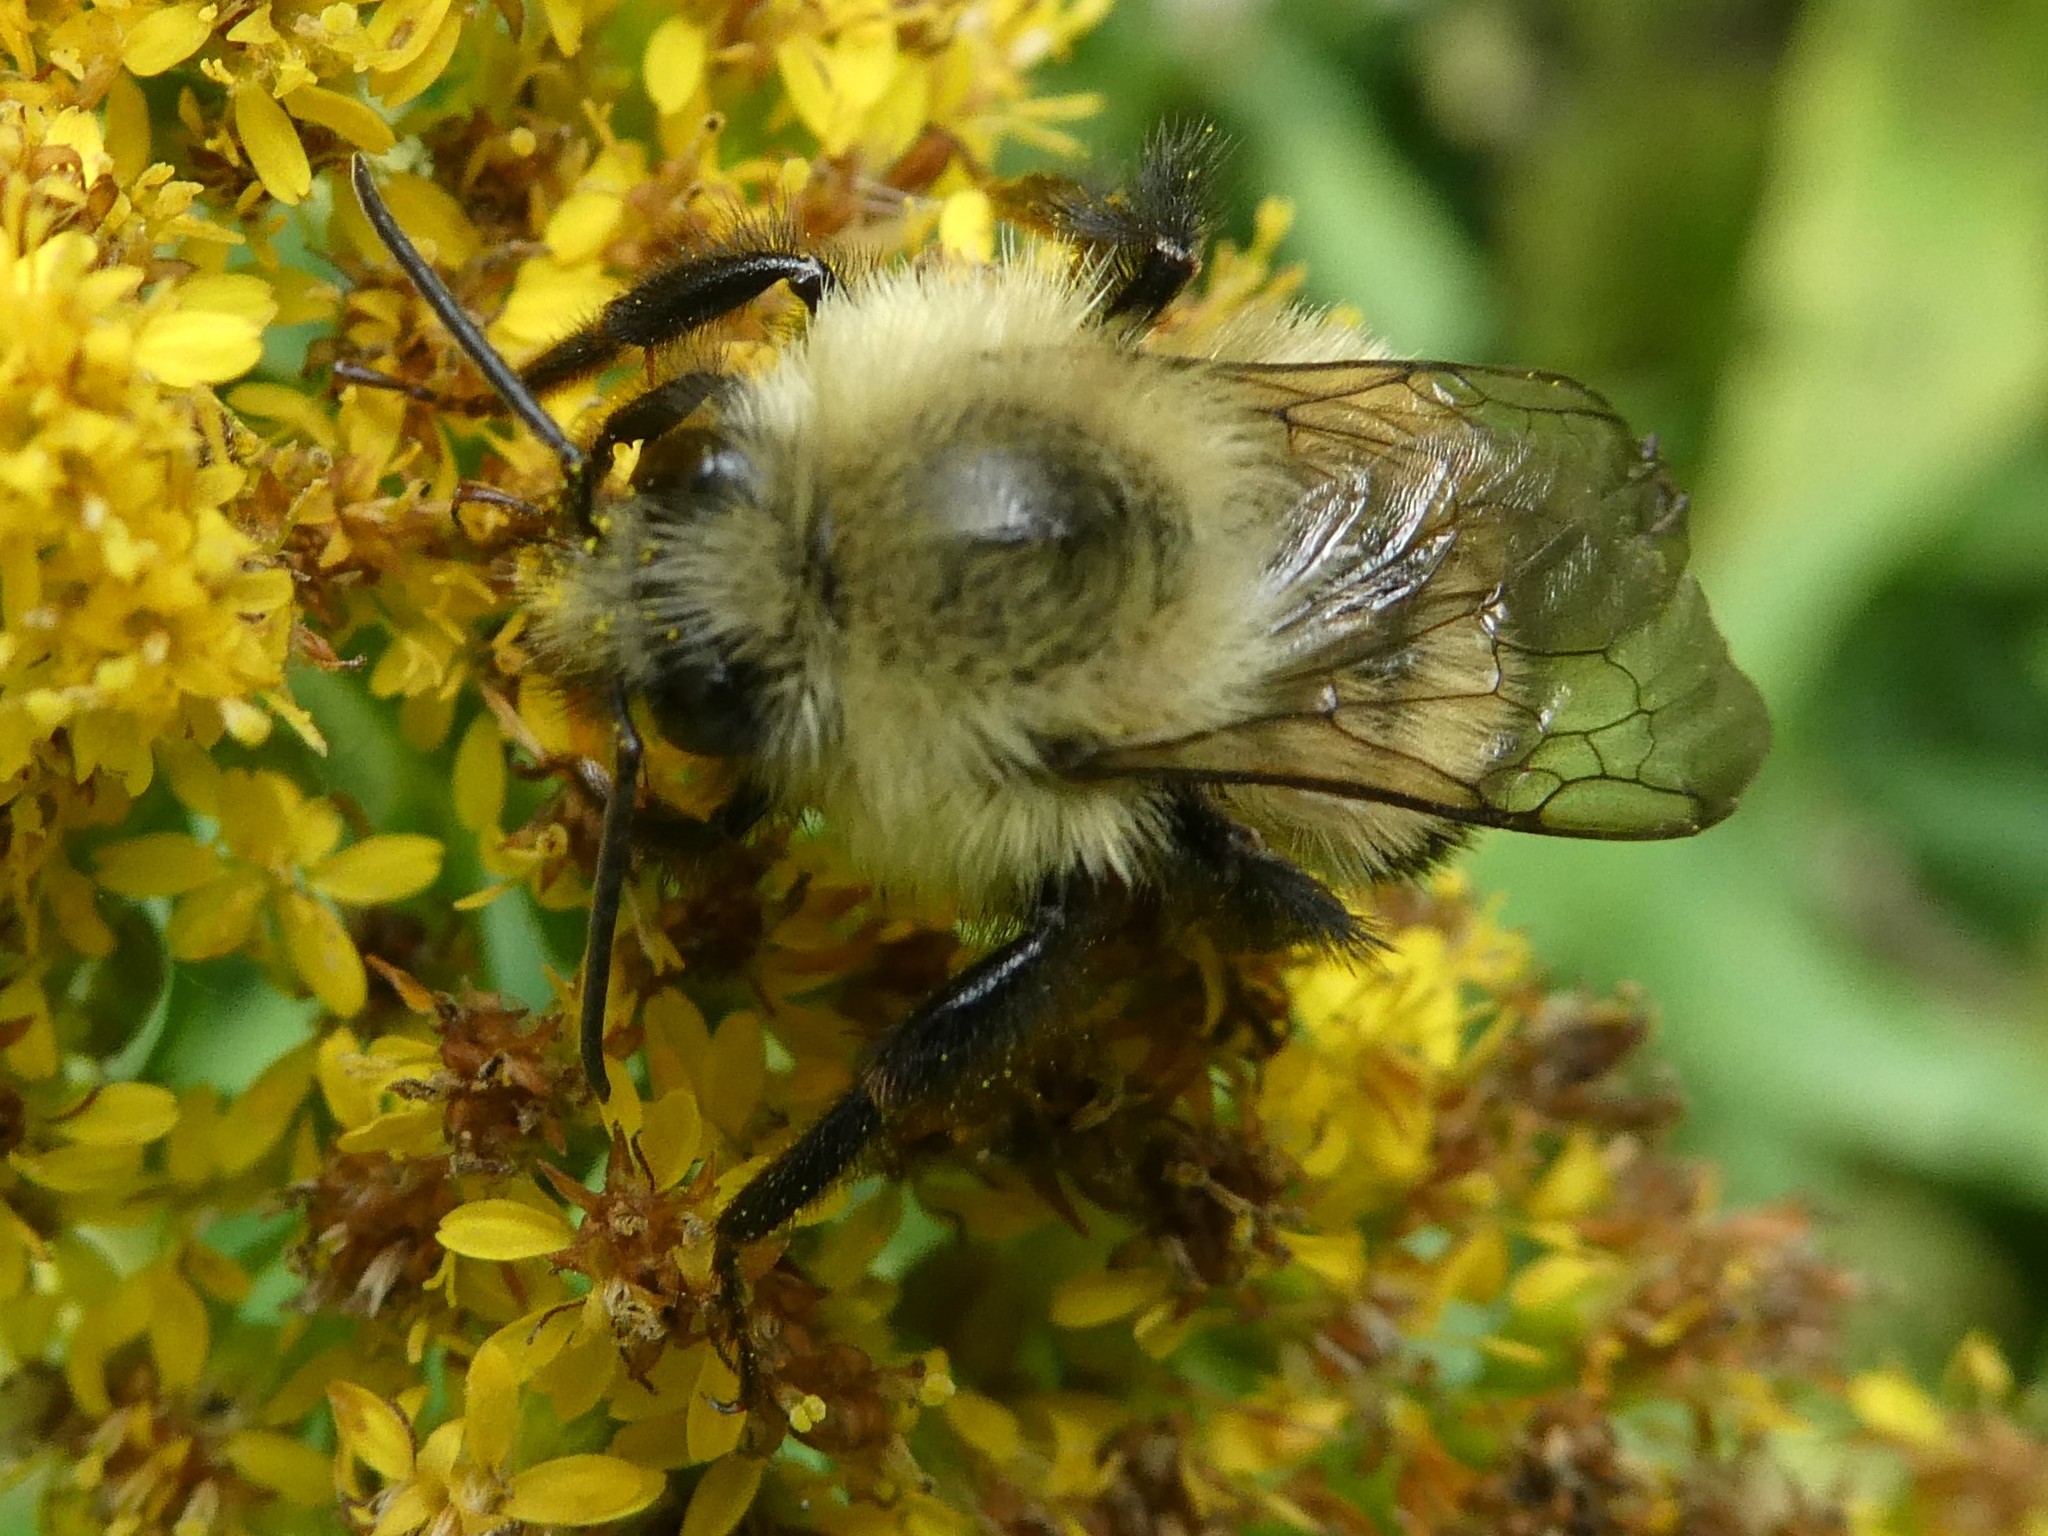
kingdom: Animalia
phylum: Arthropoda
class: Insecta
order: Hymenoptera
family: Apidae
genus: Bombus
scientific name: Bombus vagans
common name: Half-black bumble bee
